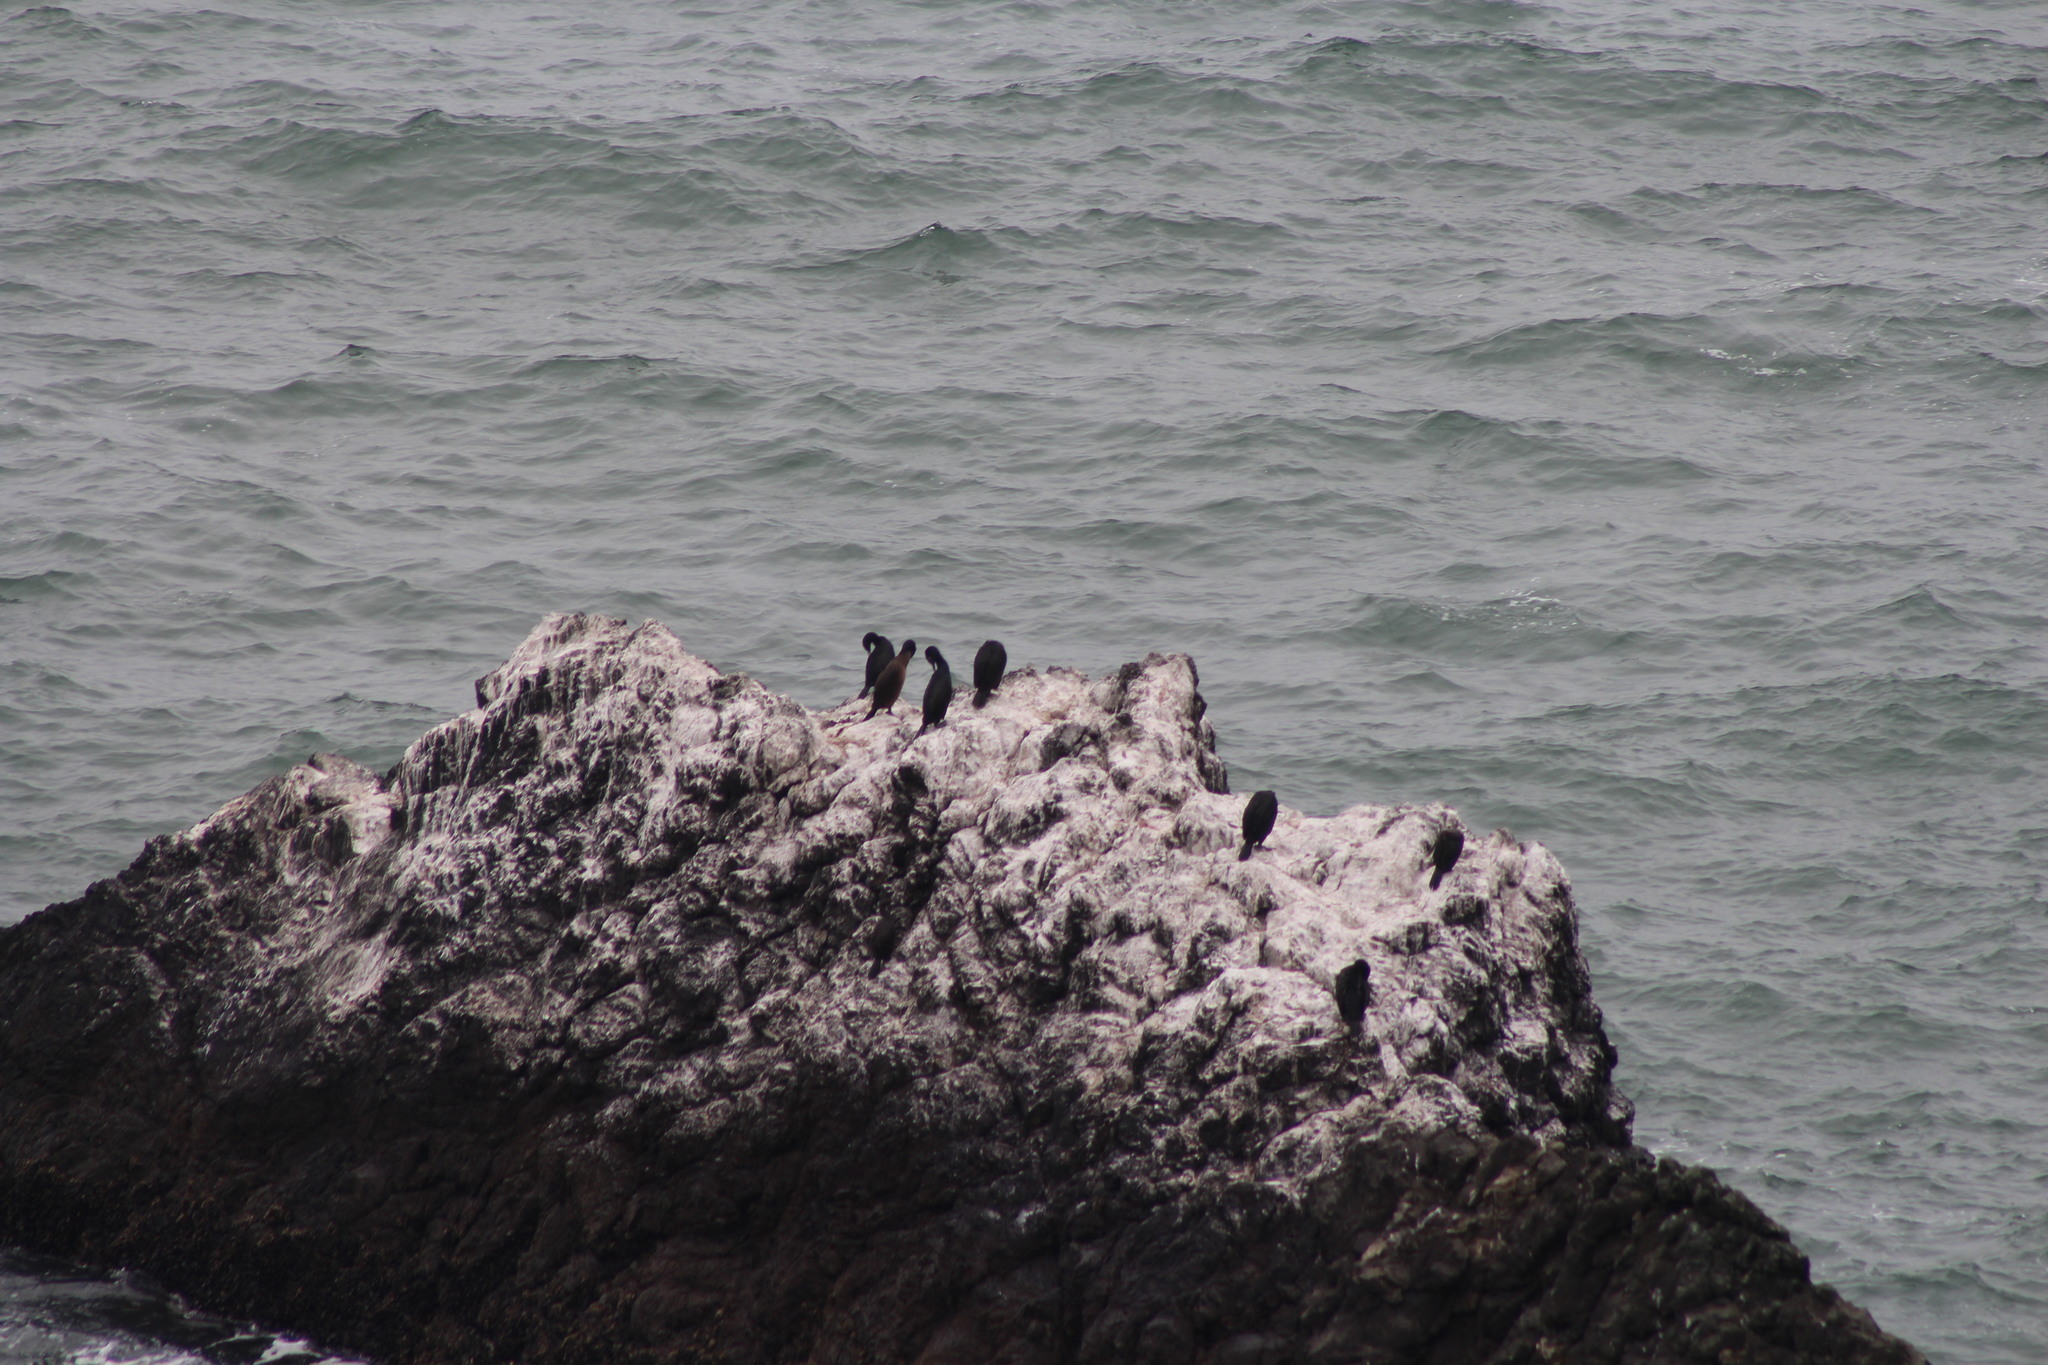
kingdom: Animalia
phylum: Chordata
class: Aves
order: Suliformes
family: Phalacrocoracidae
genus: Urile
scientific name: Urile penicillatus
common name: Brandt's cormorant
